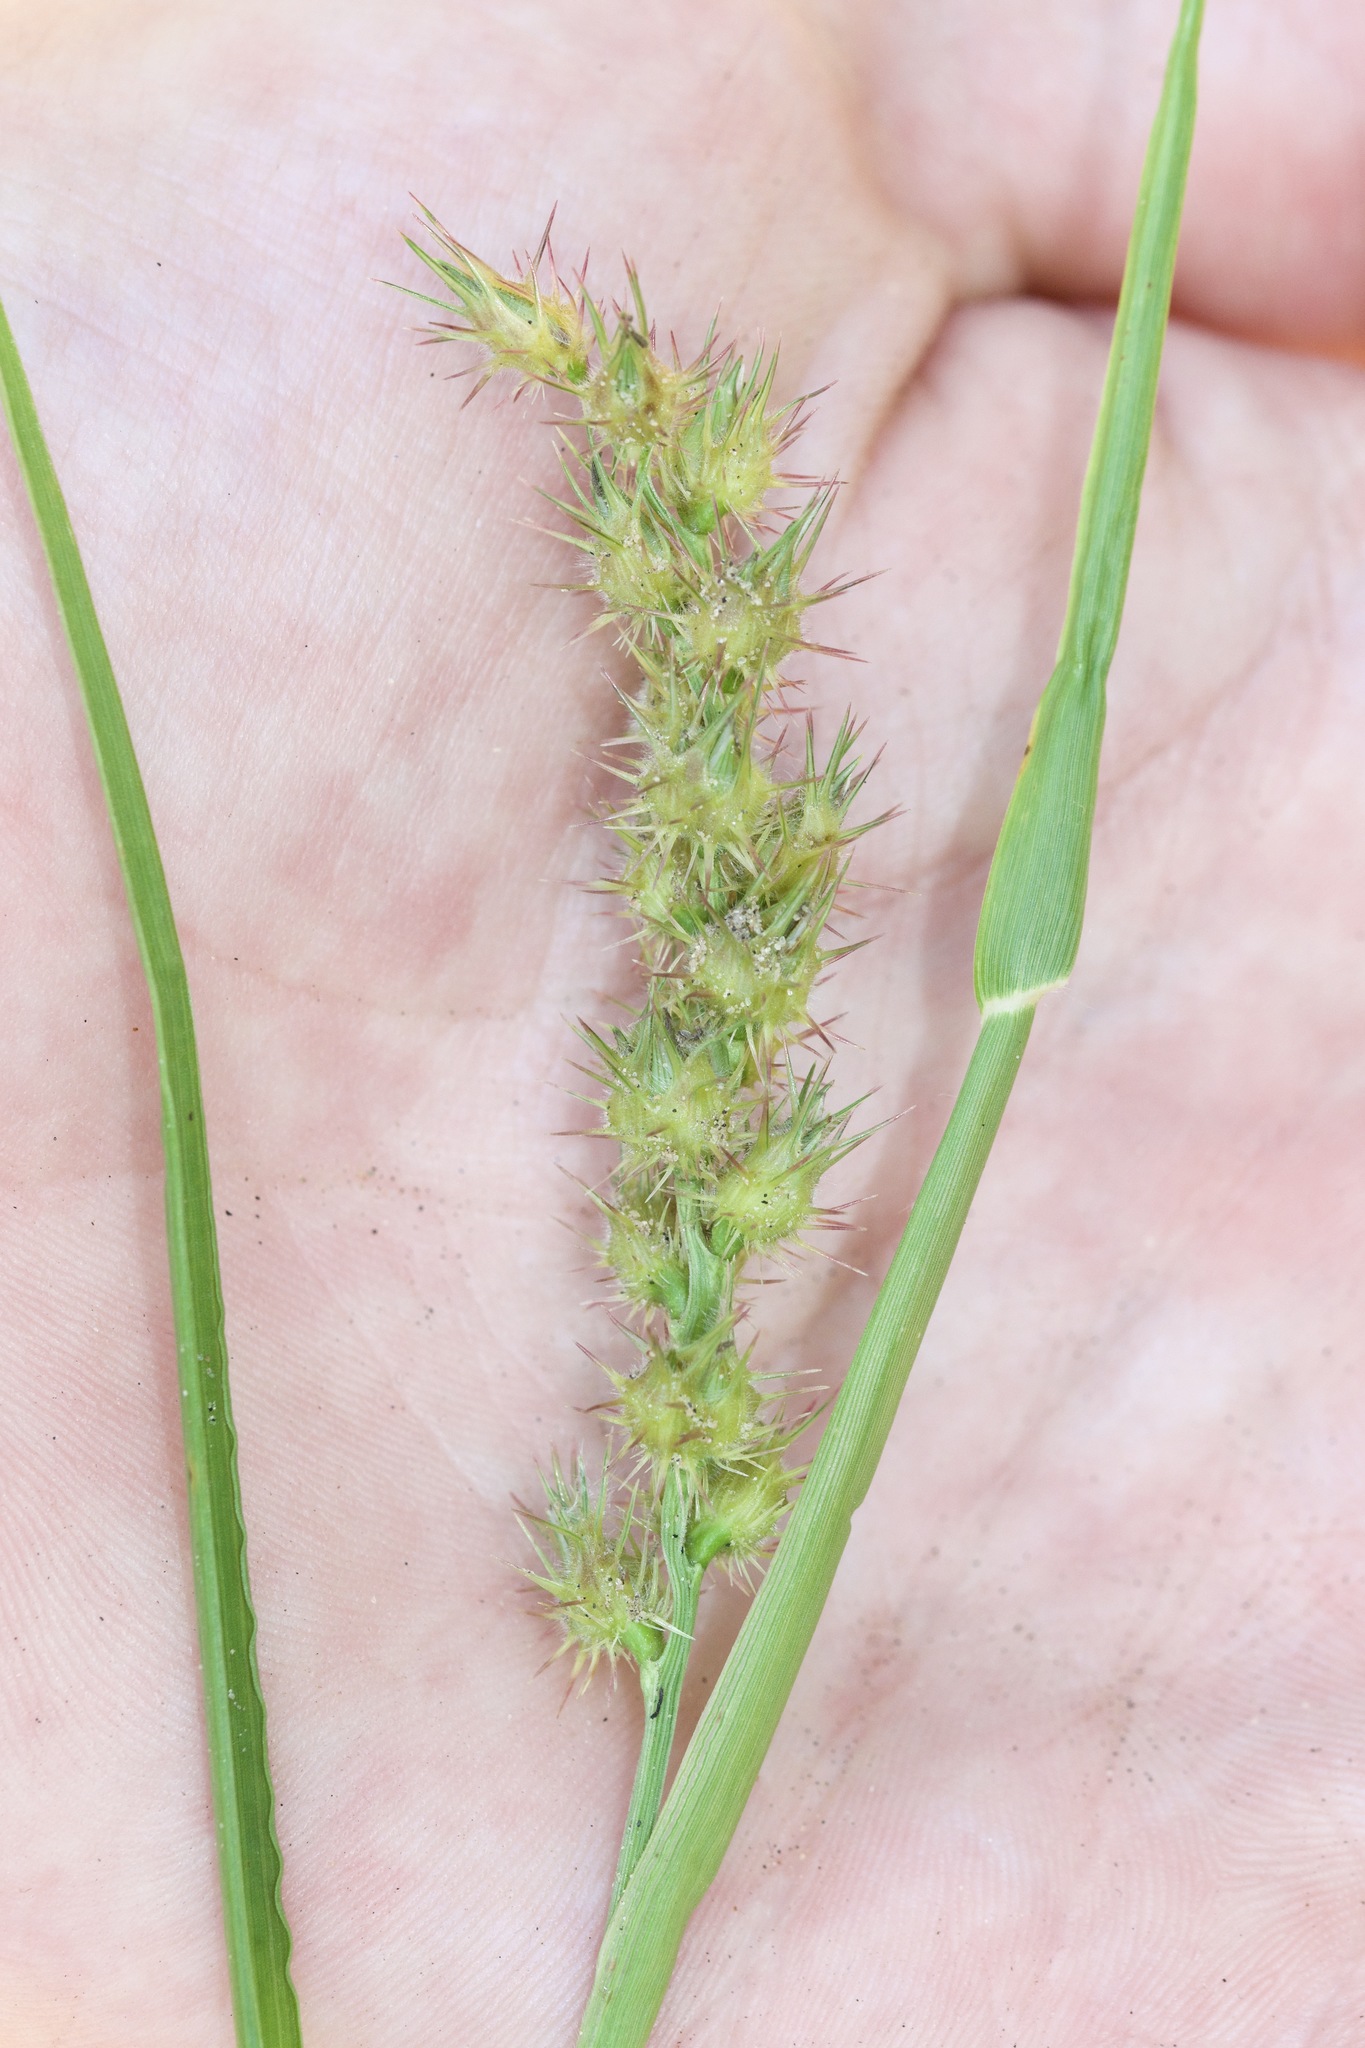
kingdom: Plantae
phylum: Tracheophyta
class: Liliopsida
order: Poales
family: Poaceae
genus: Cenchrus
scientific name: Cenchrus longispinus
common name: Mat sandbur
